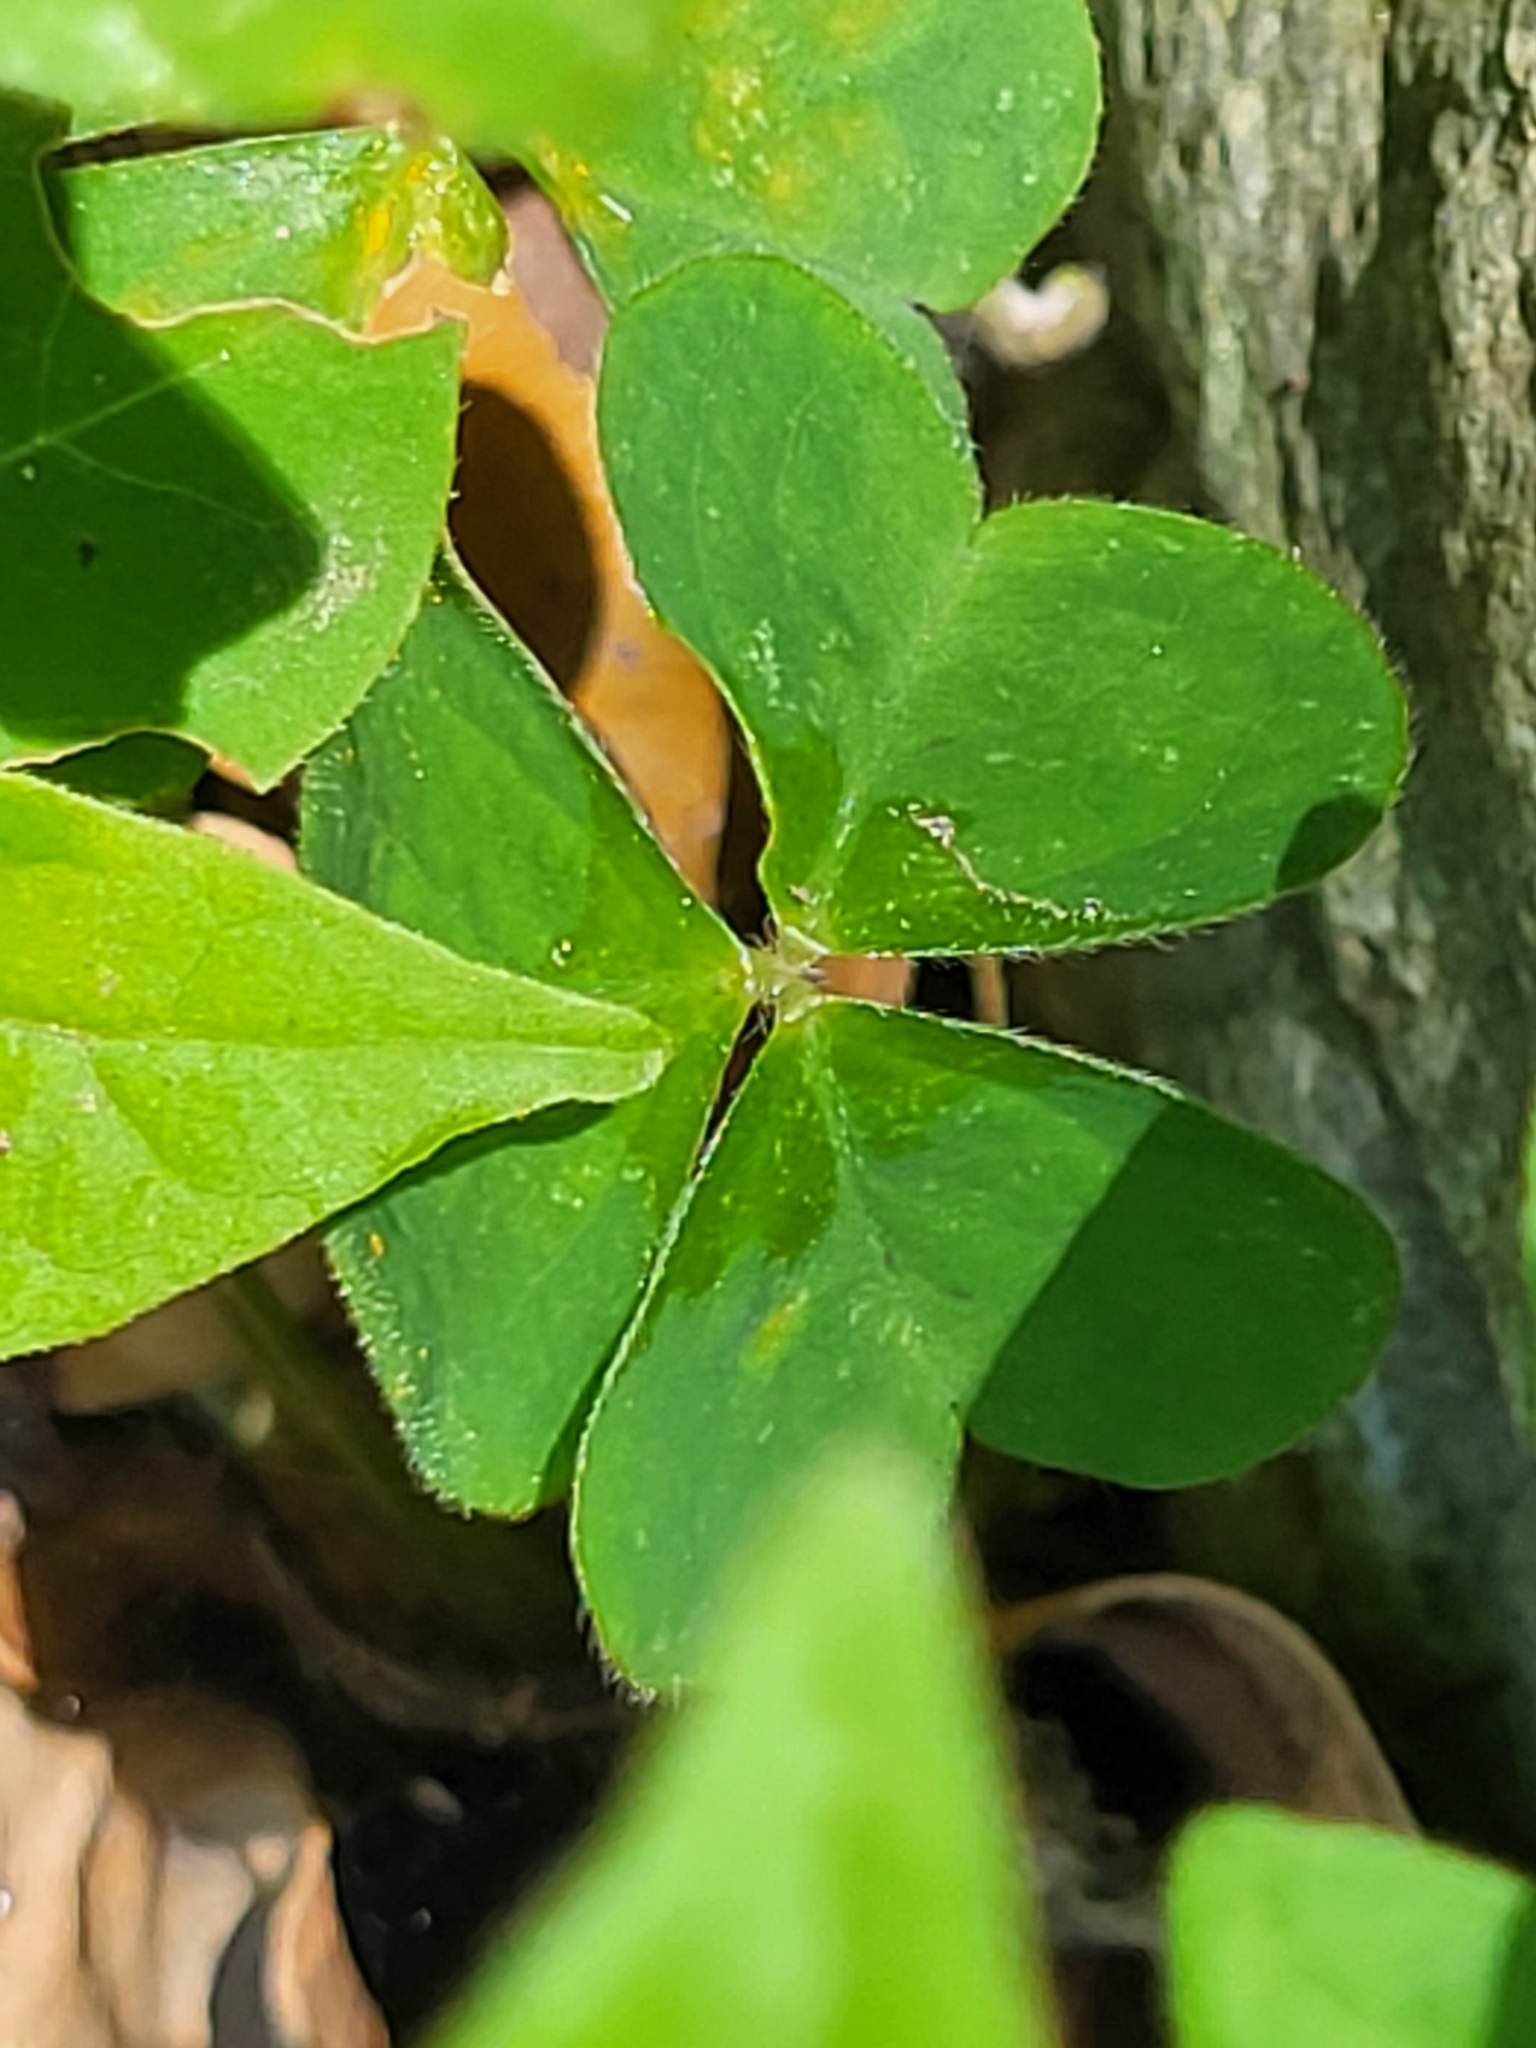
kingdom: Plantae
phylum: Tracheophyta
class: Magnoliopsida
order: Oxalidales
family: Oxalidaceae
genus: Oxalis
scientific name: Oxalis debilis
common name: Large-flowered pink-sorrel
